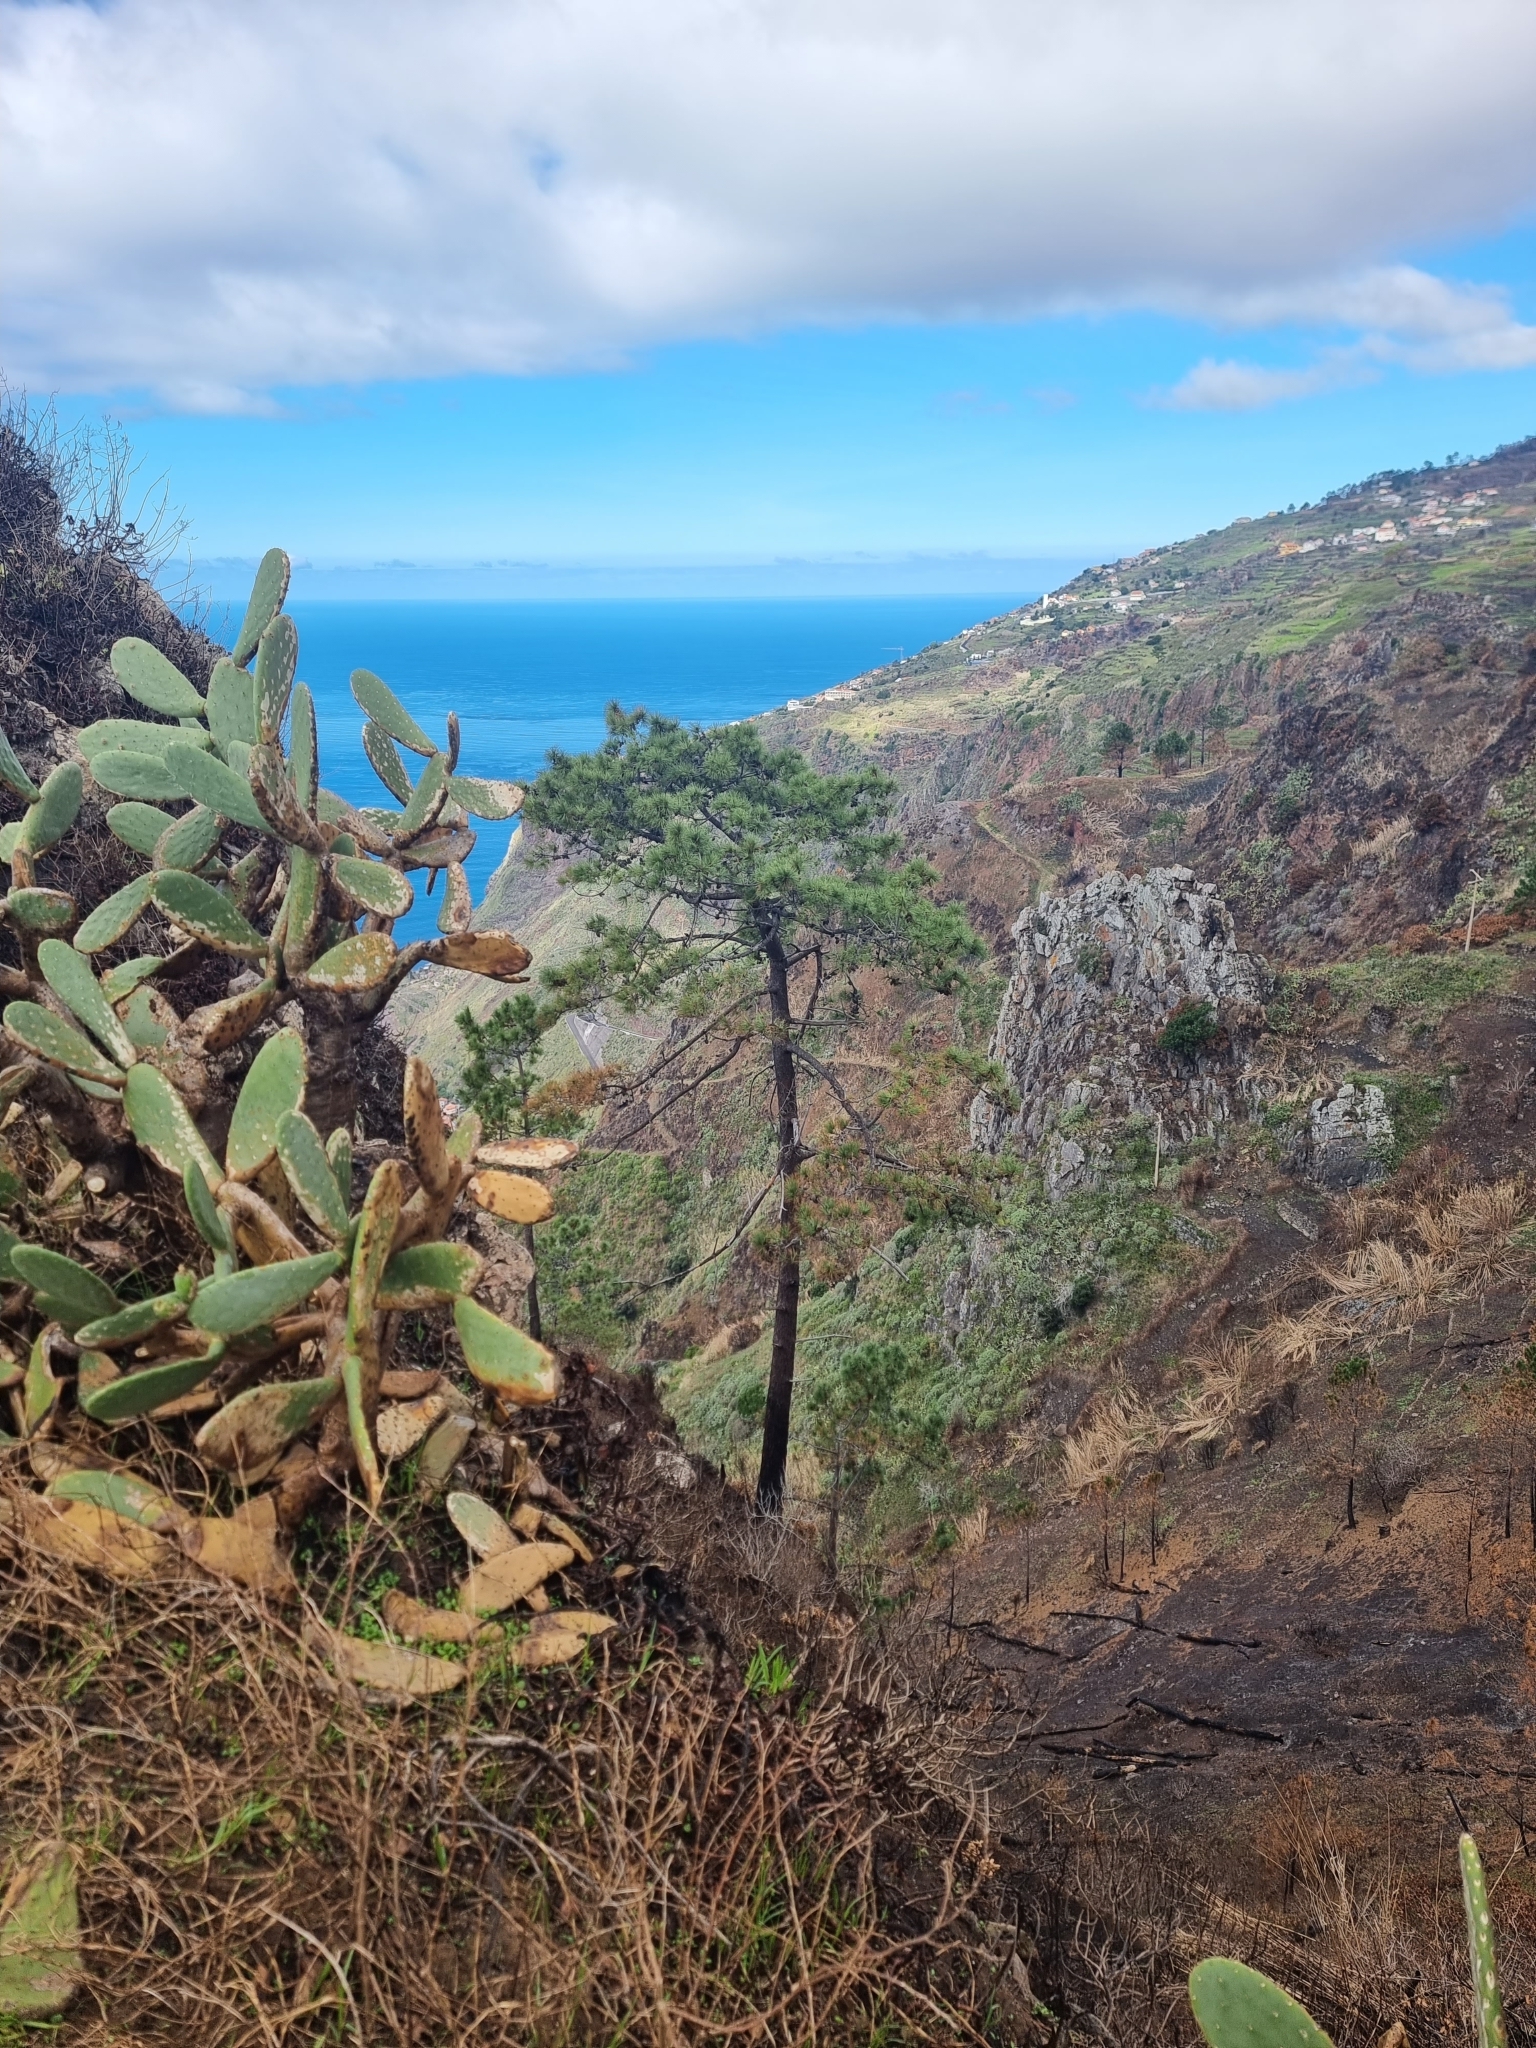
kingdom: Plantae
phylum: Tracheophyta
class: Pinopsida
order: Pinales
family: Pinaceae
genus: Pinus
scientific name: Pinus pinaster
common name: Maritime pine
